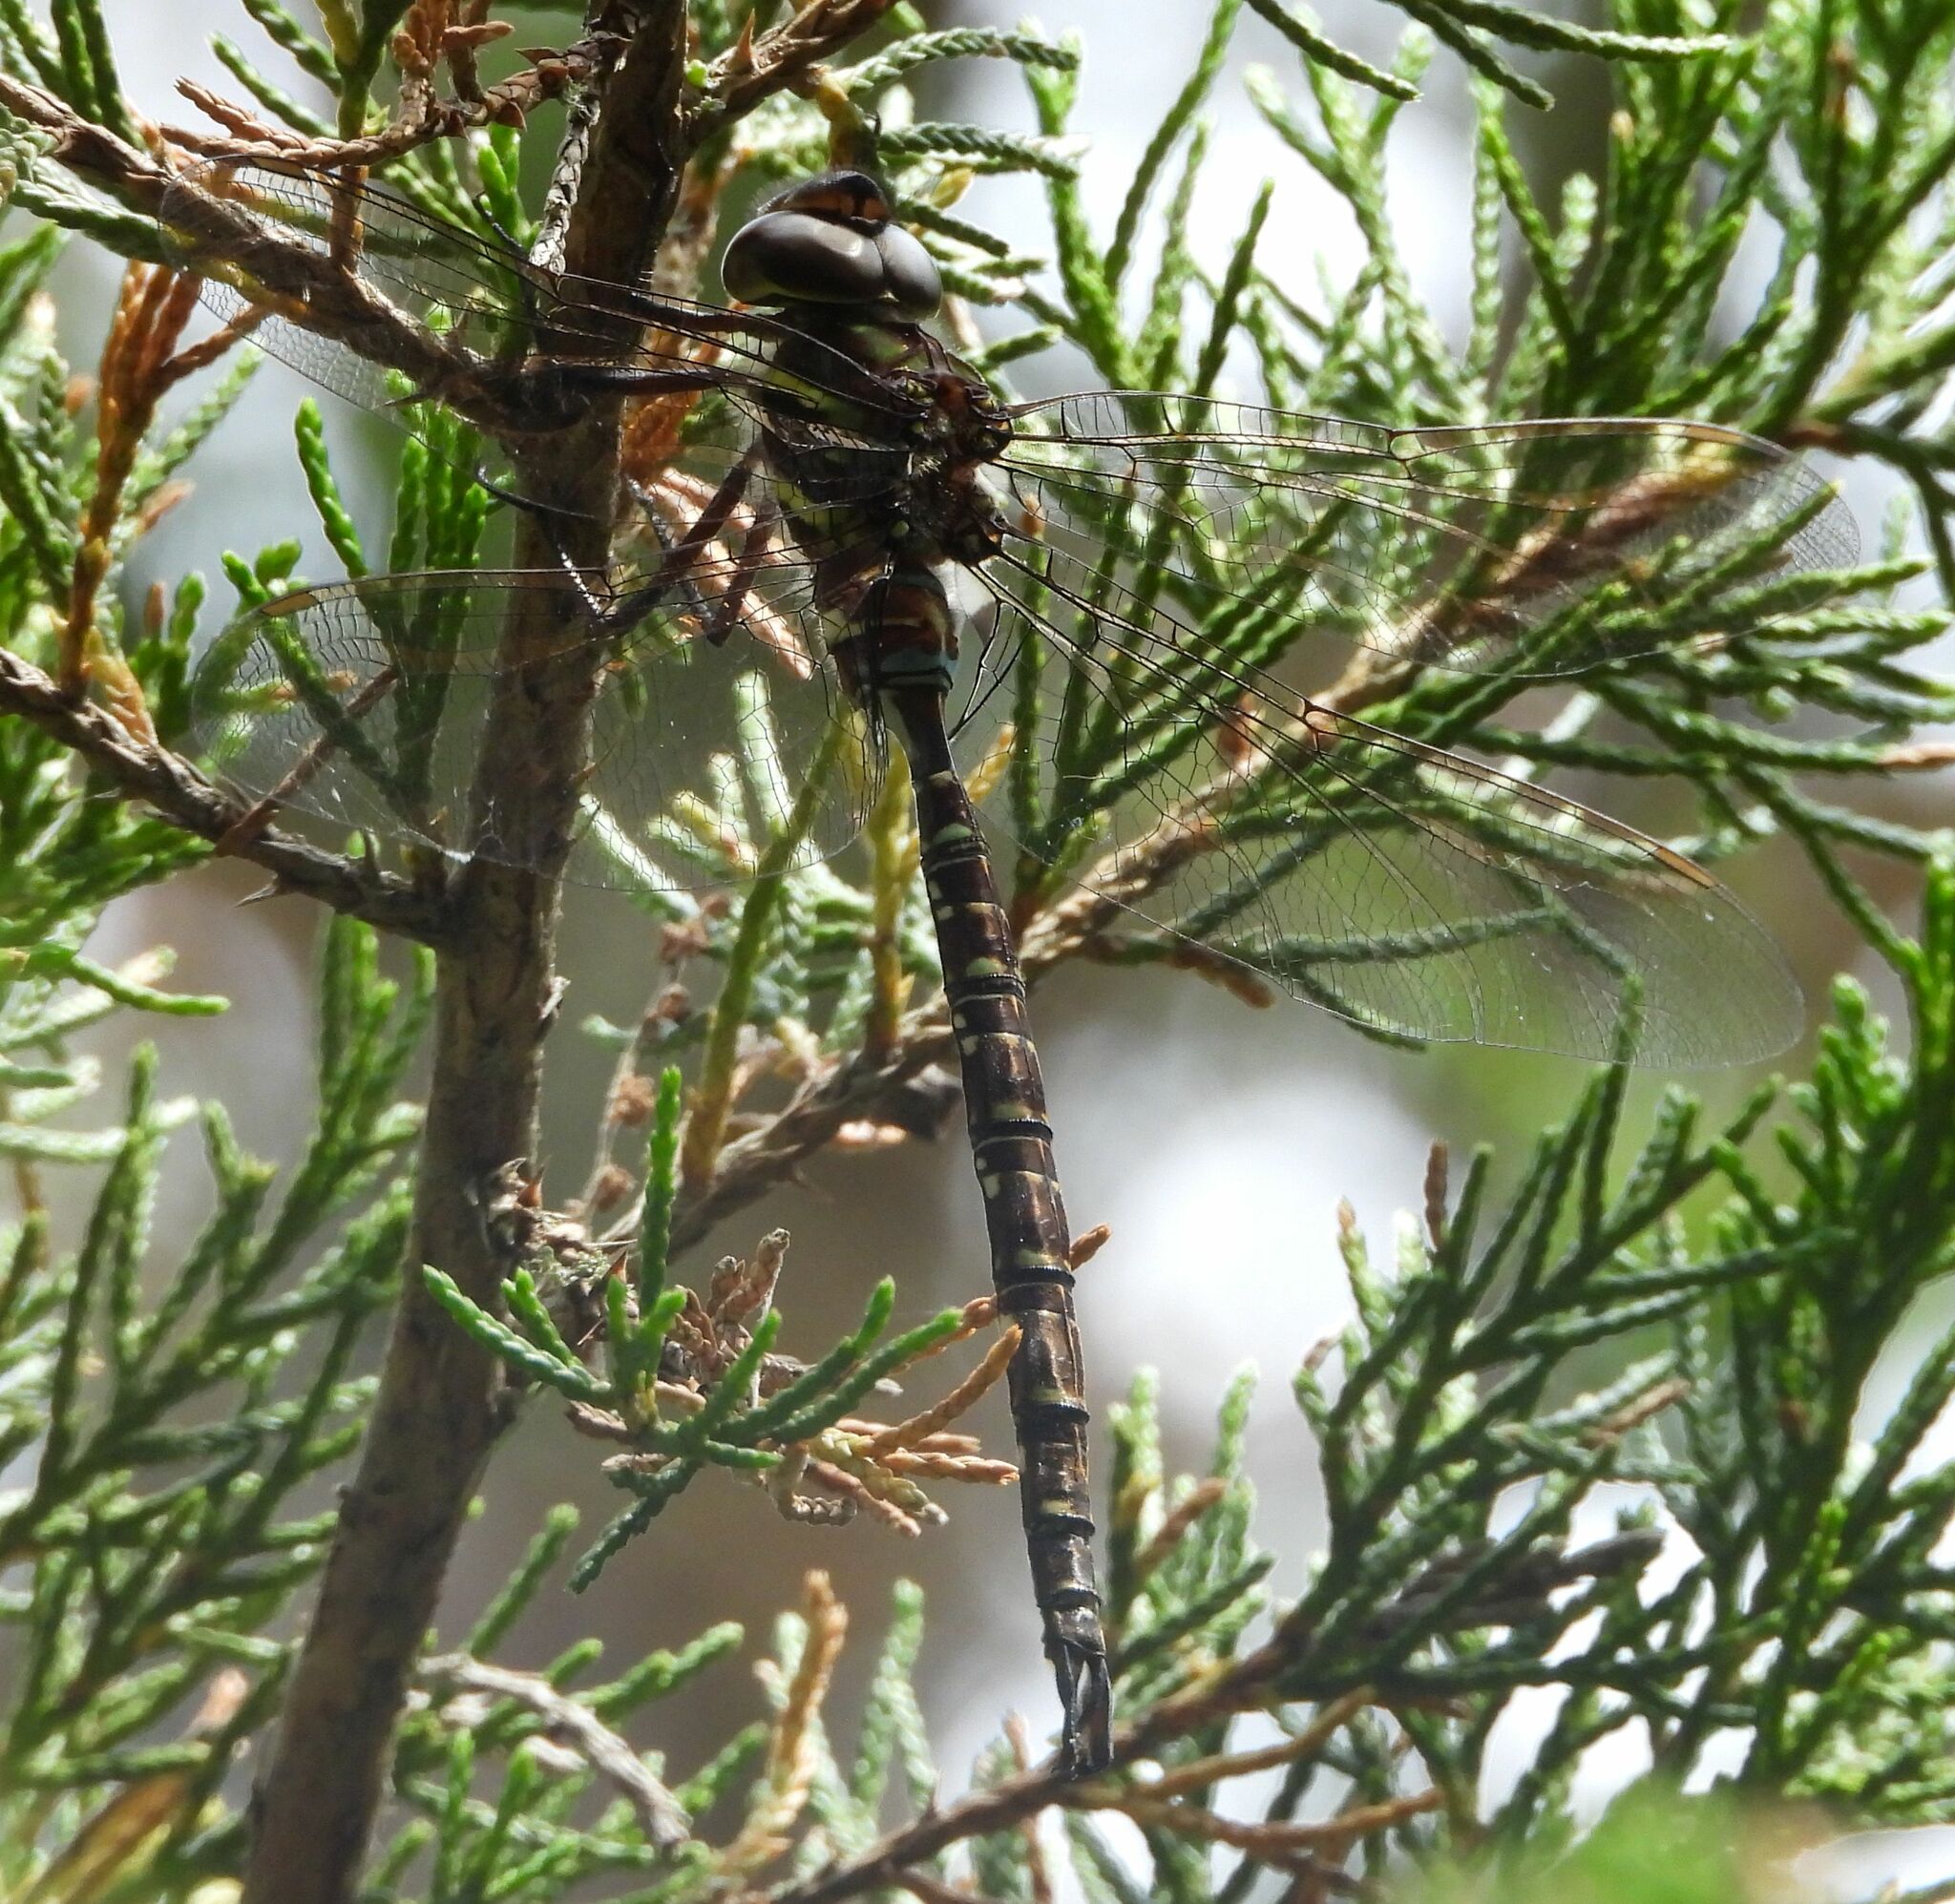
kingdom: Animalia
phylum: Arthropoda
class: Insecta
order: Odonata
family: Aeshnidae
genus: Aeshna
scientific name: Aeshna umbrosa
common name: Shadow darner
